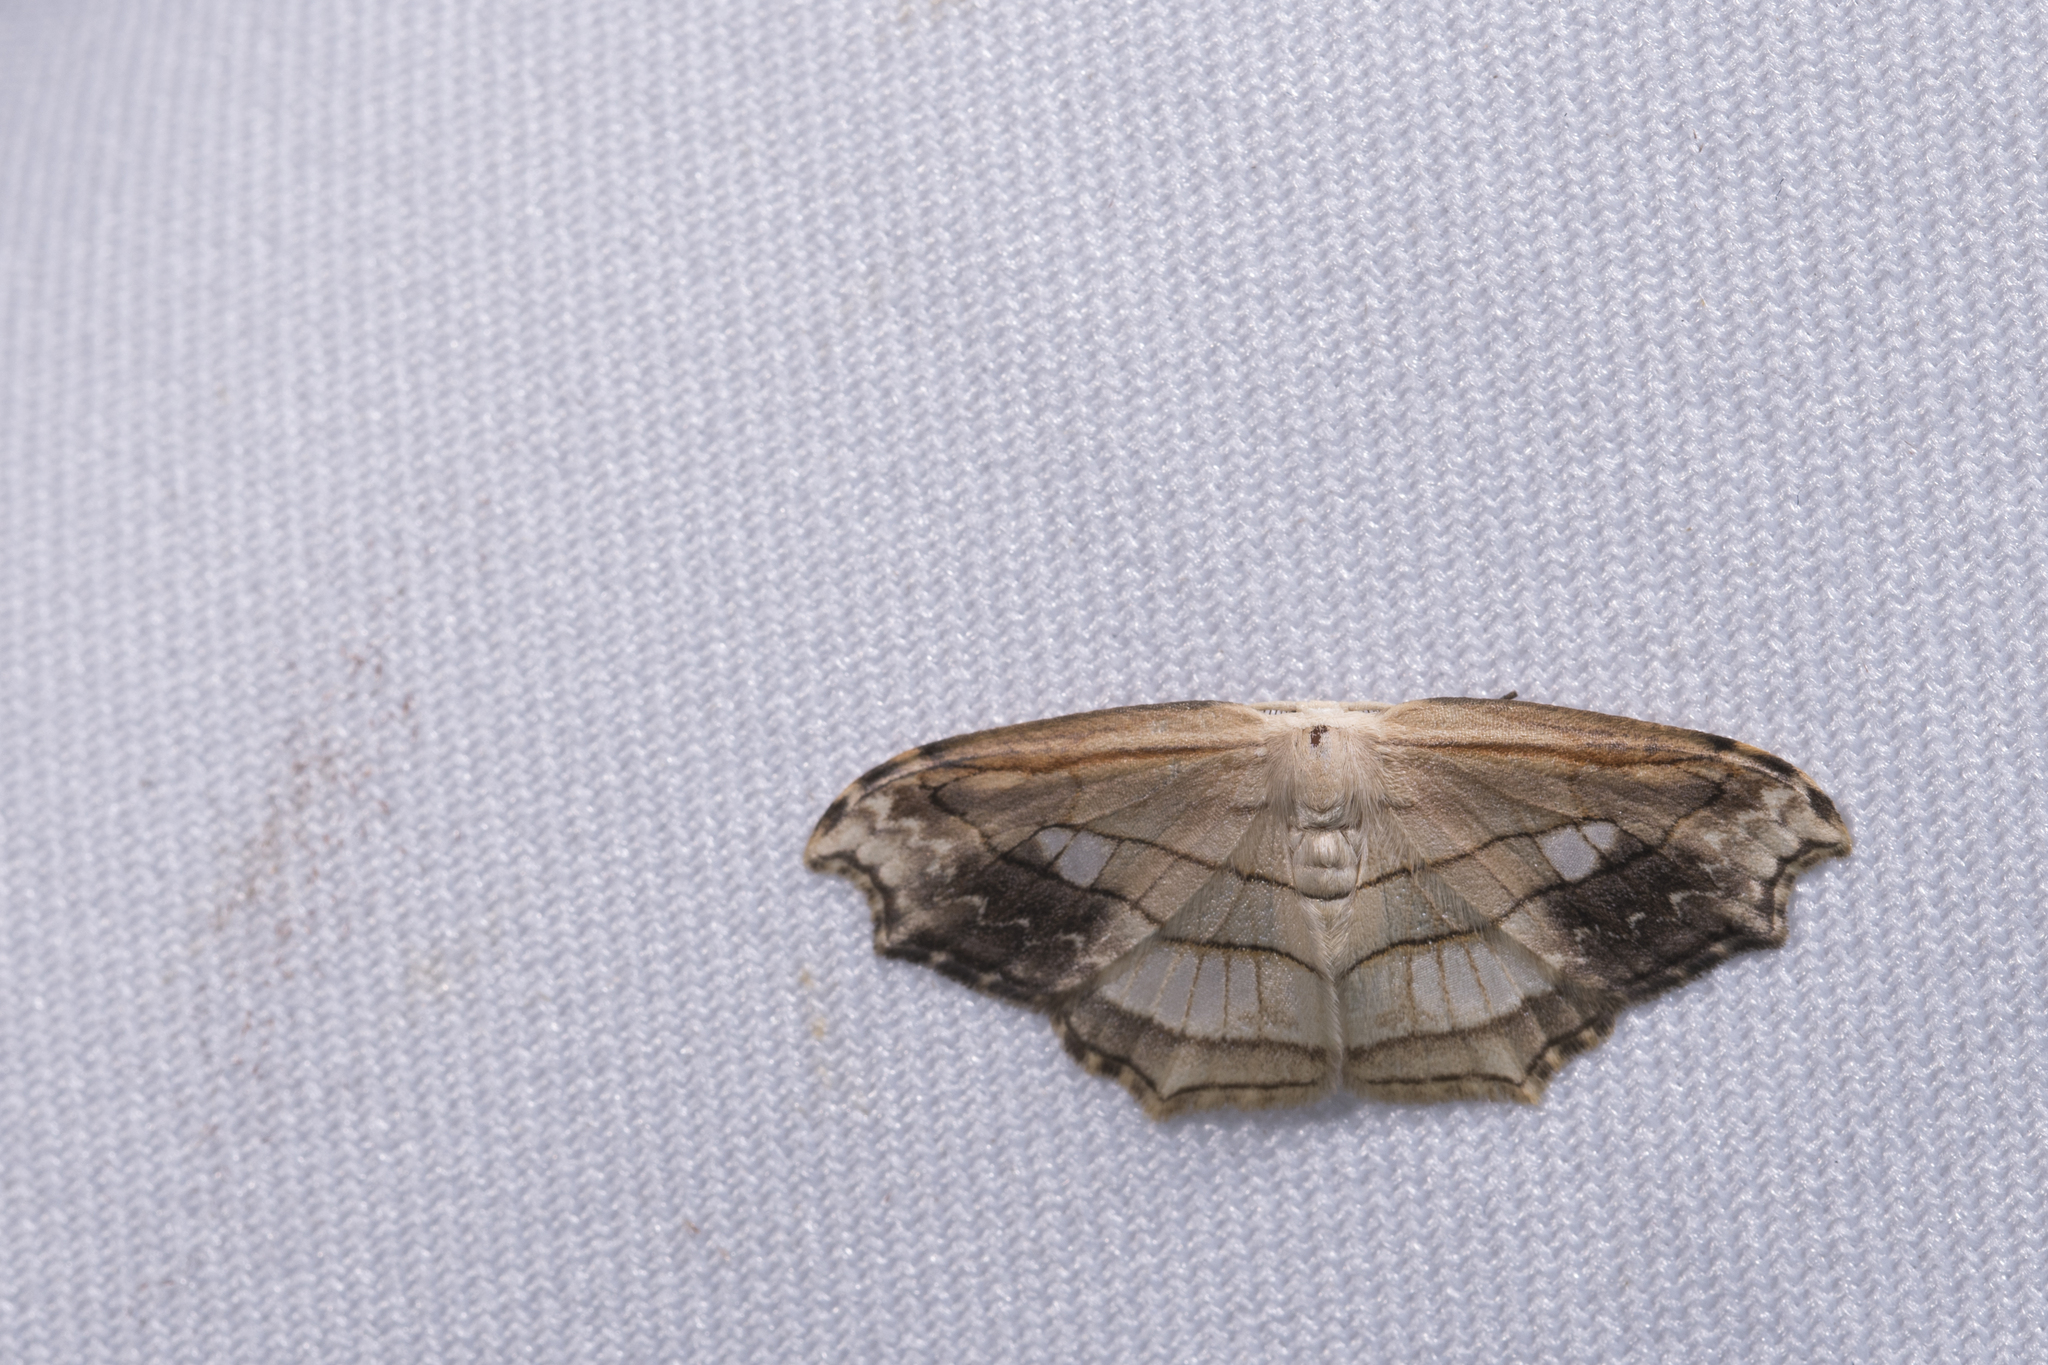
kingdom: Animalia
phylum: Arthropoda
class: Insecta
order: Lepidoptera
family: Drepanidae
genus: Leucoblepsis
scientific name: Leucoblepsis taiwanensis
